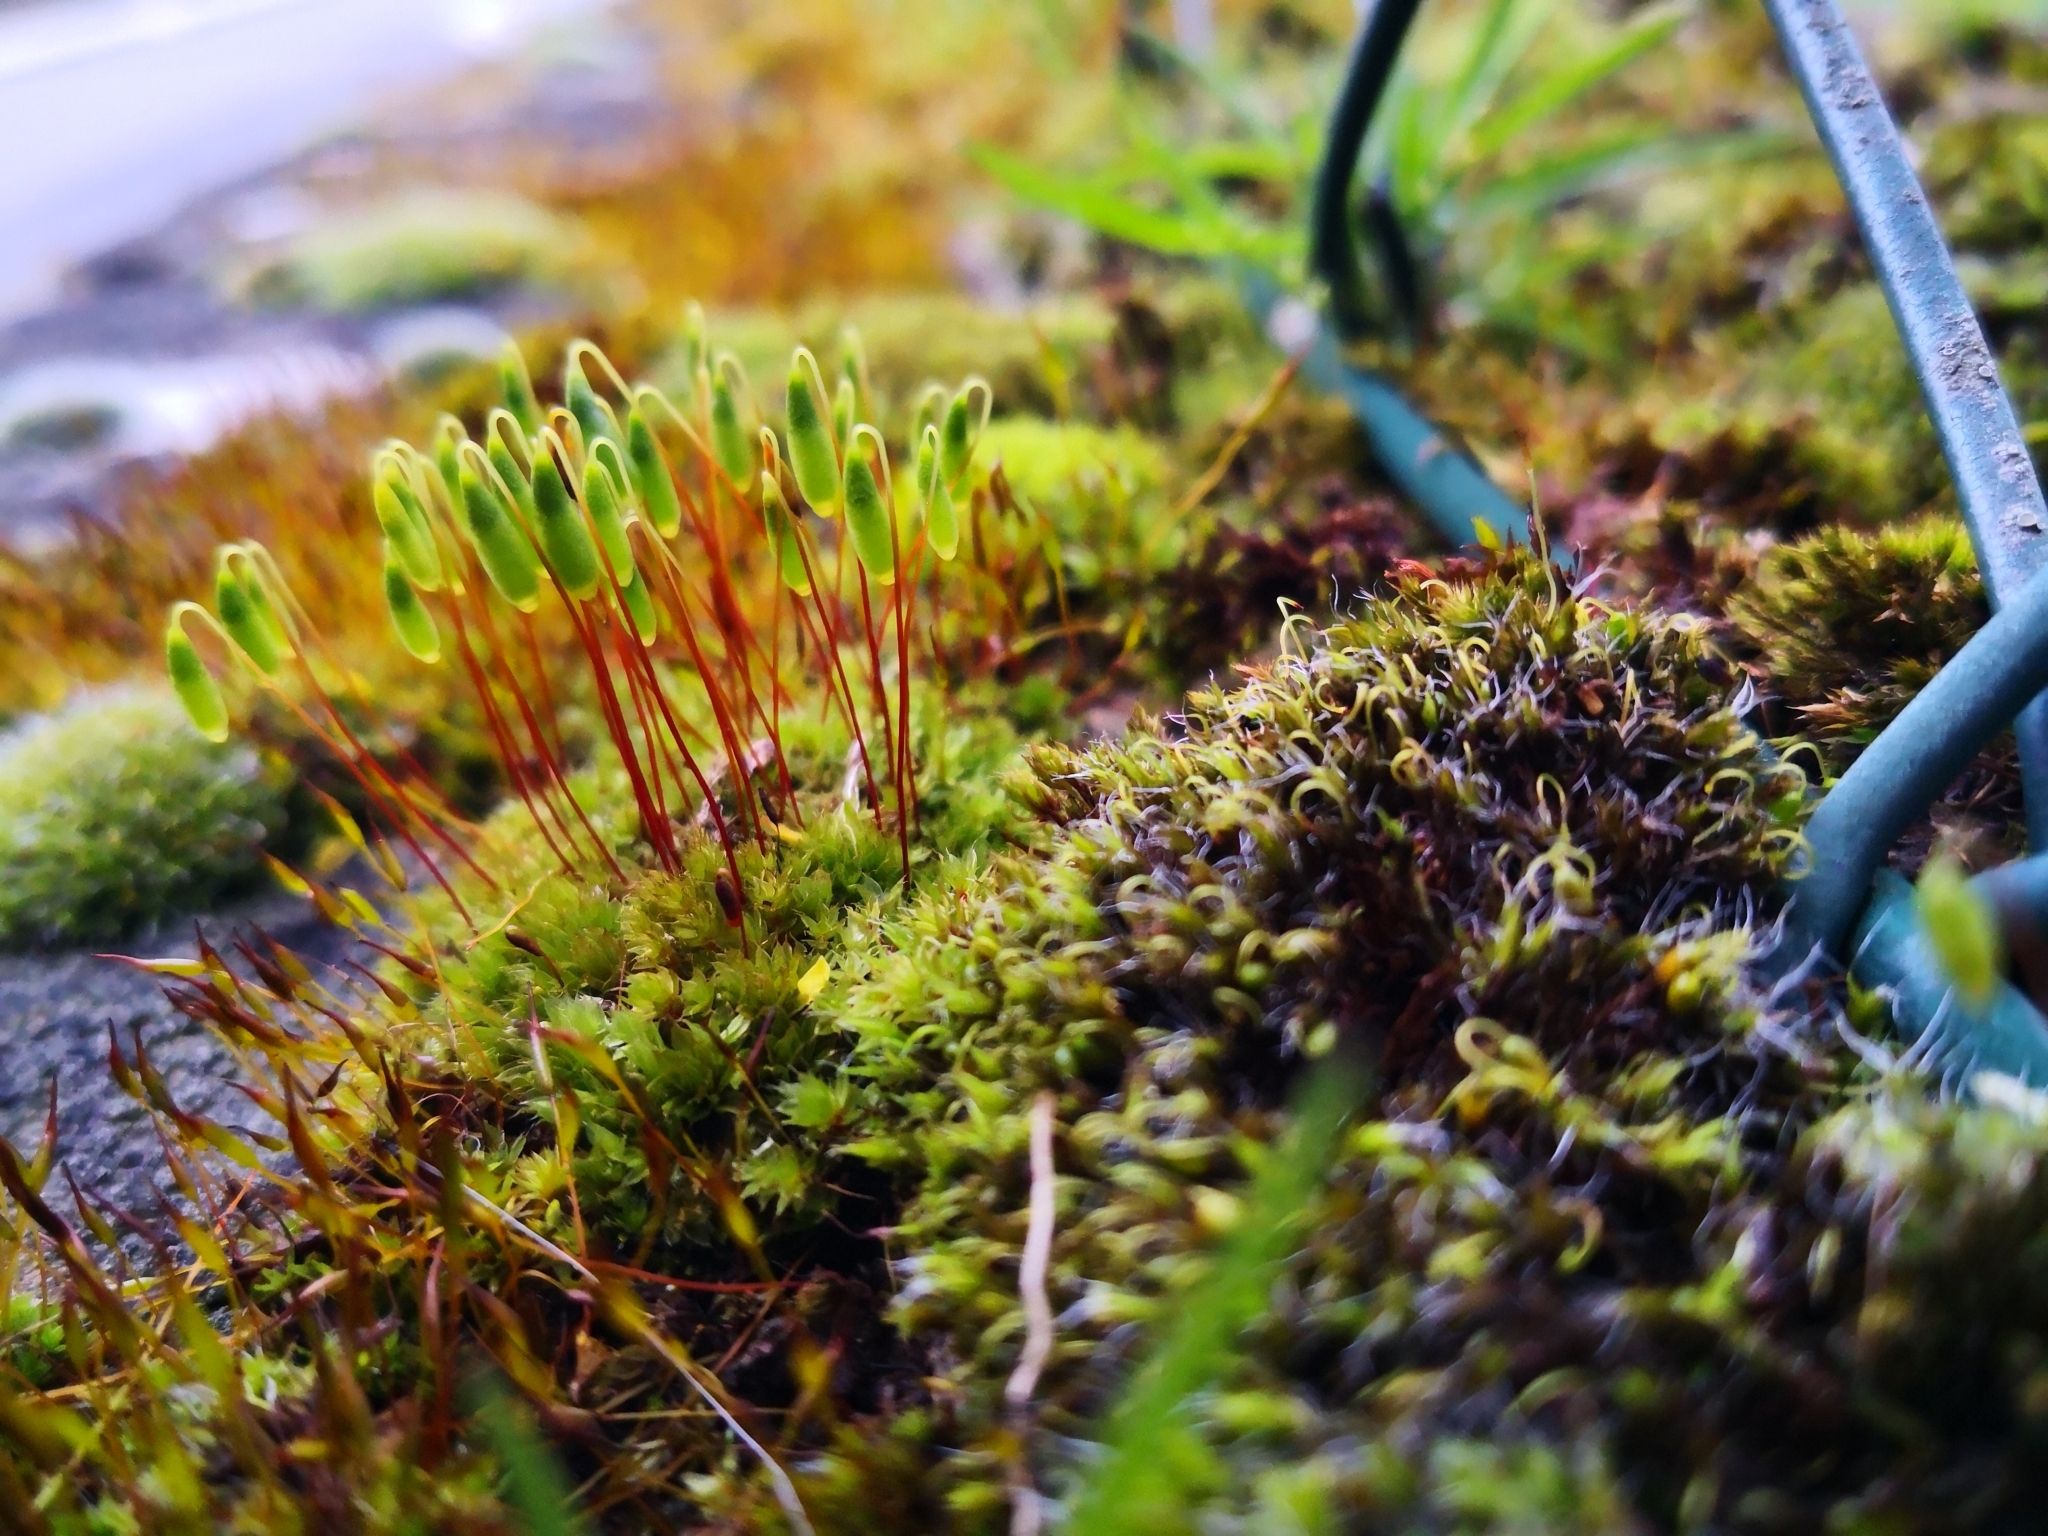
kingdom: Plantae
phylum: Bryophyta
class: Bryopsida
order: Bryales
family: Bryaceae
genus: Rosulabryum
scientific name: Rosulabryum capillare
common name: Capillary thread-moss
